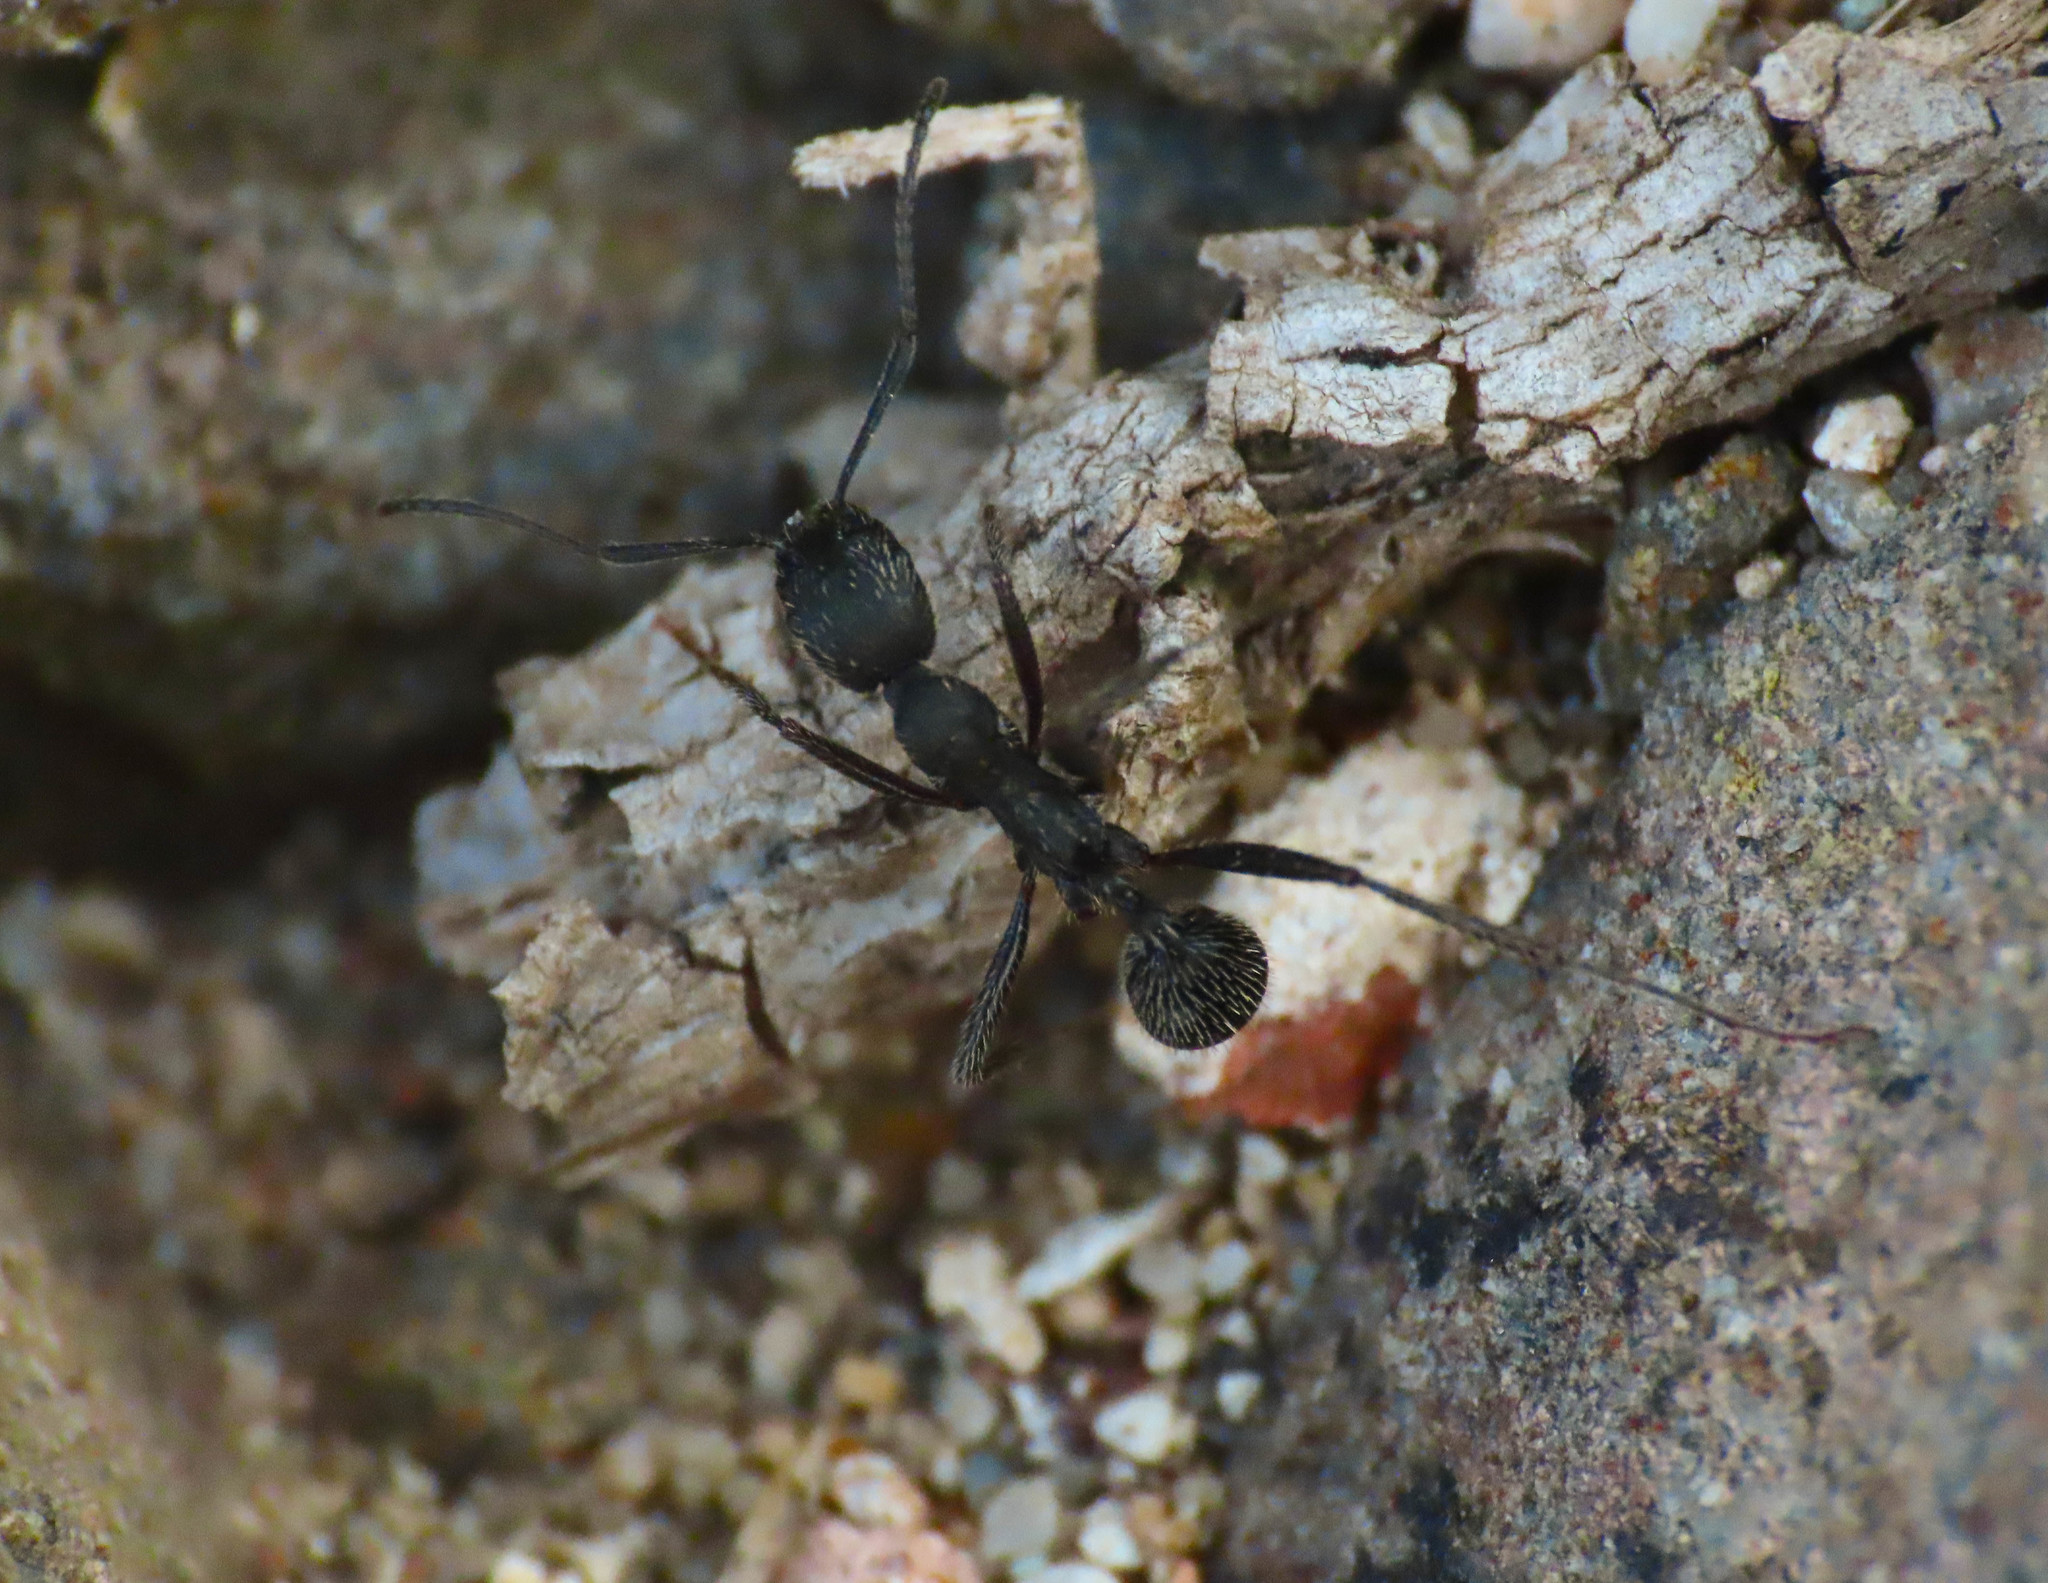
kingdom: Animalia
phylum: Arthropoda
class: Insecta
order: Hymenoptera
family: Formicidae
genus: Aphaenogaster
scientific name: Aphaenogaster senilis
